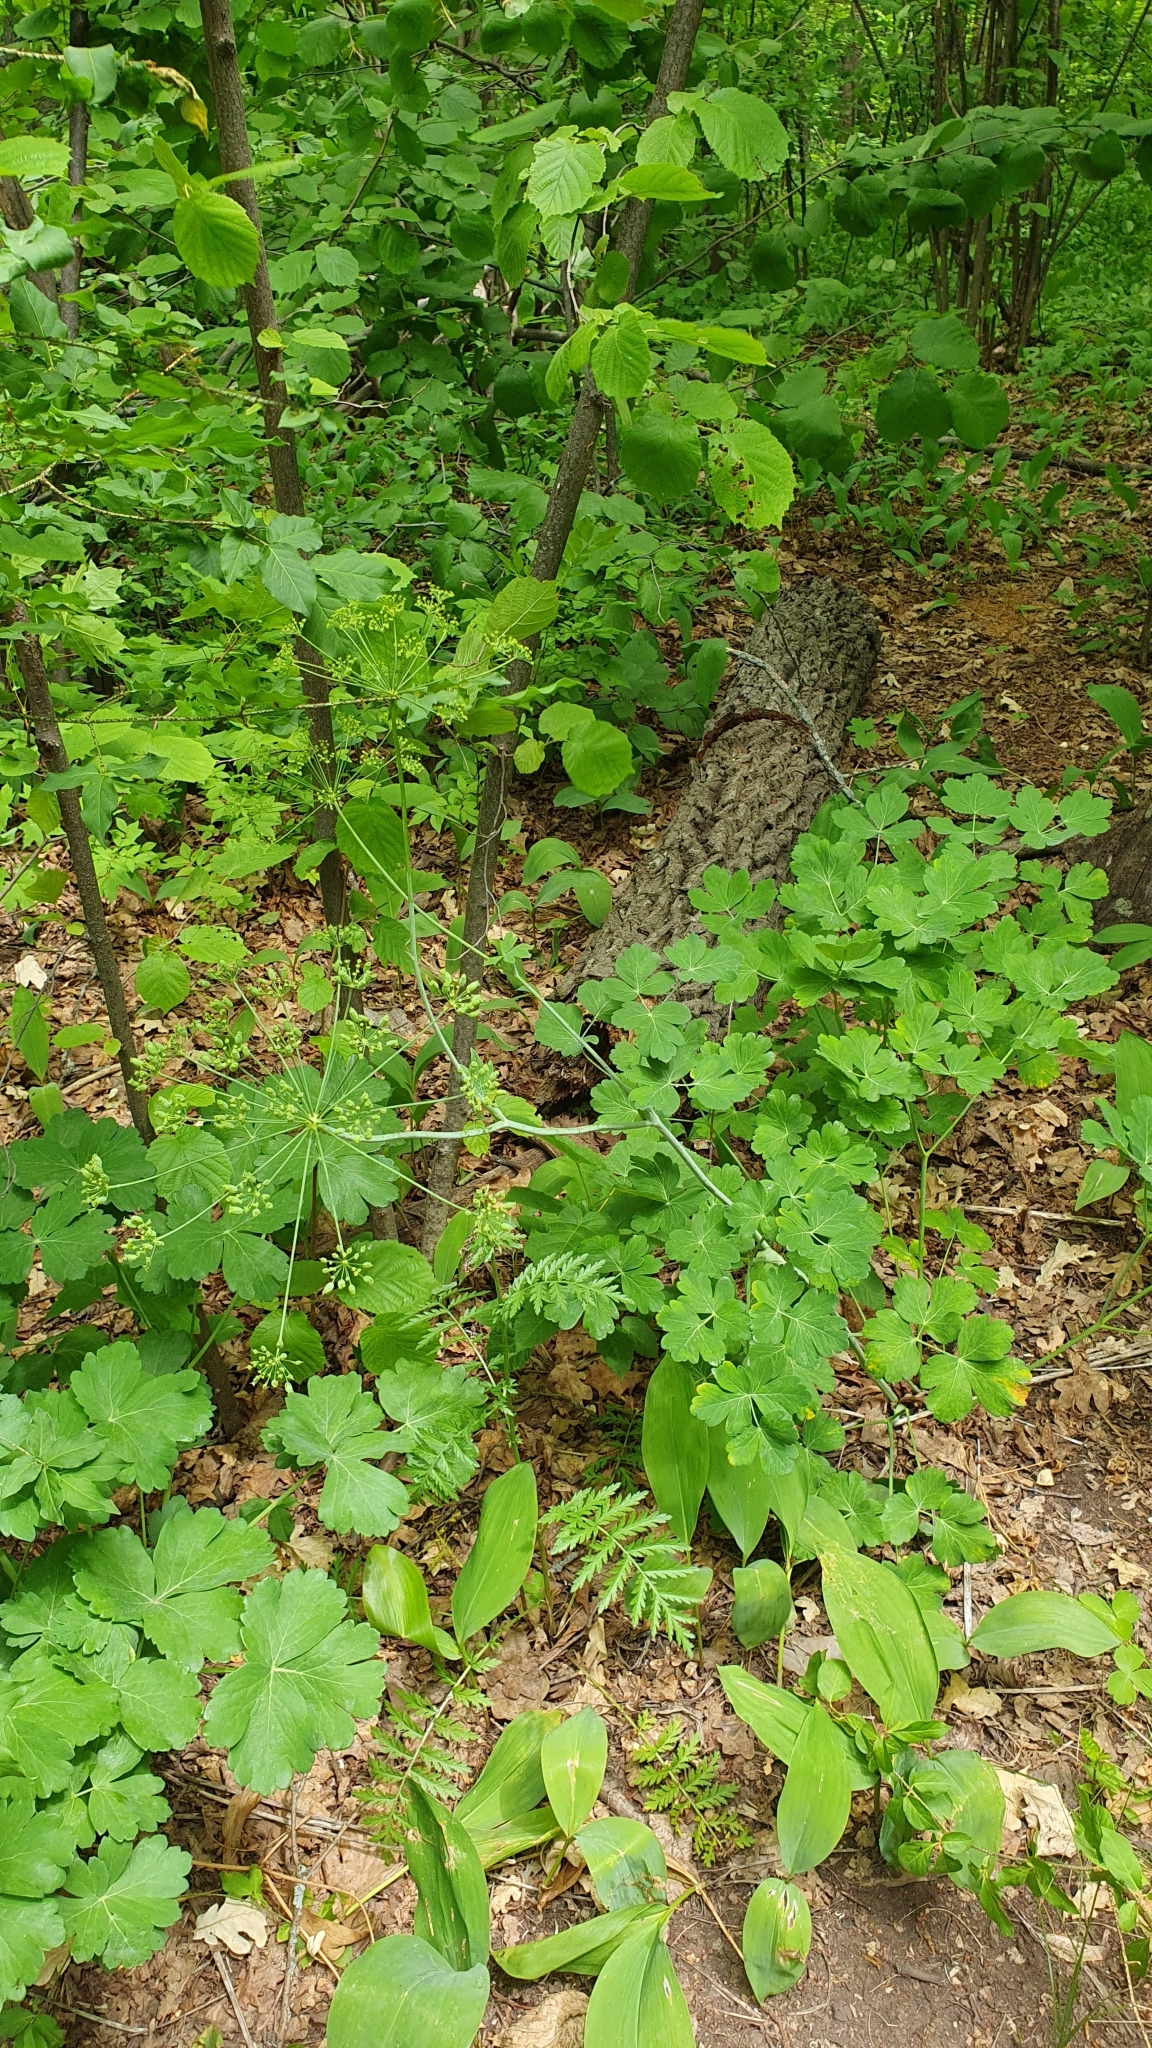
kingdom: Plantae
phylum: Tracheophyta
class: Magnoliopsida
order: Apiales
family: Apiaceae
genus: Laser
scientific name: Laser trilobum
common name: Laser
